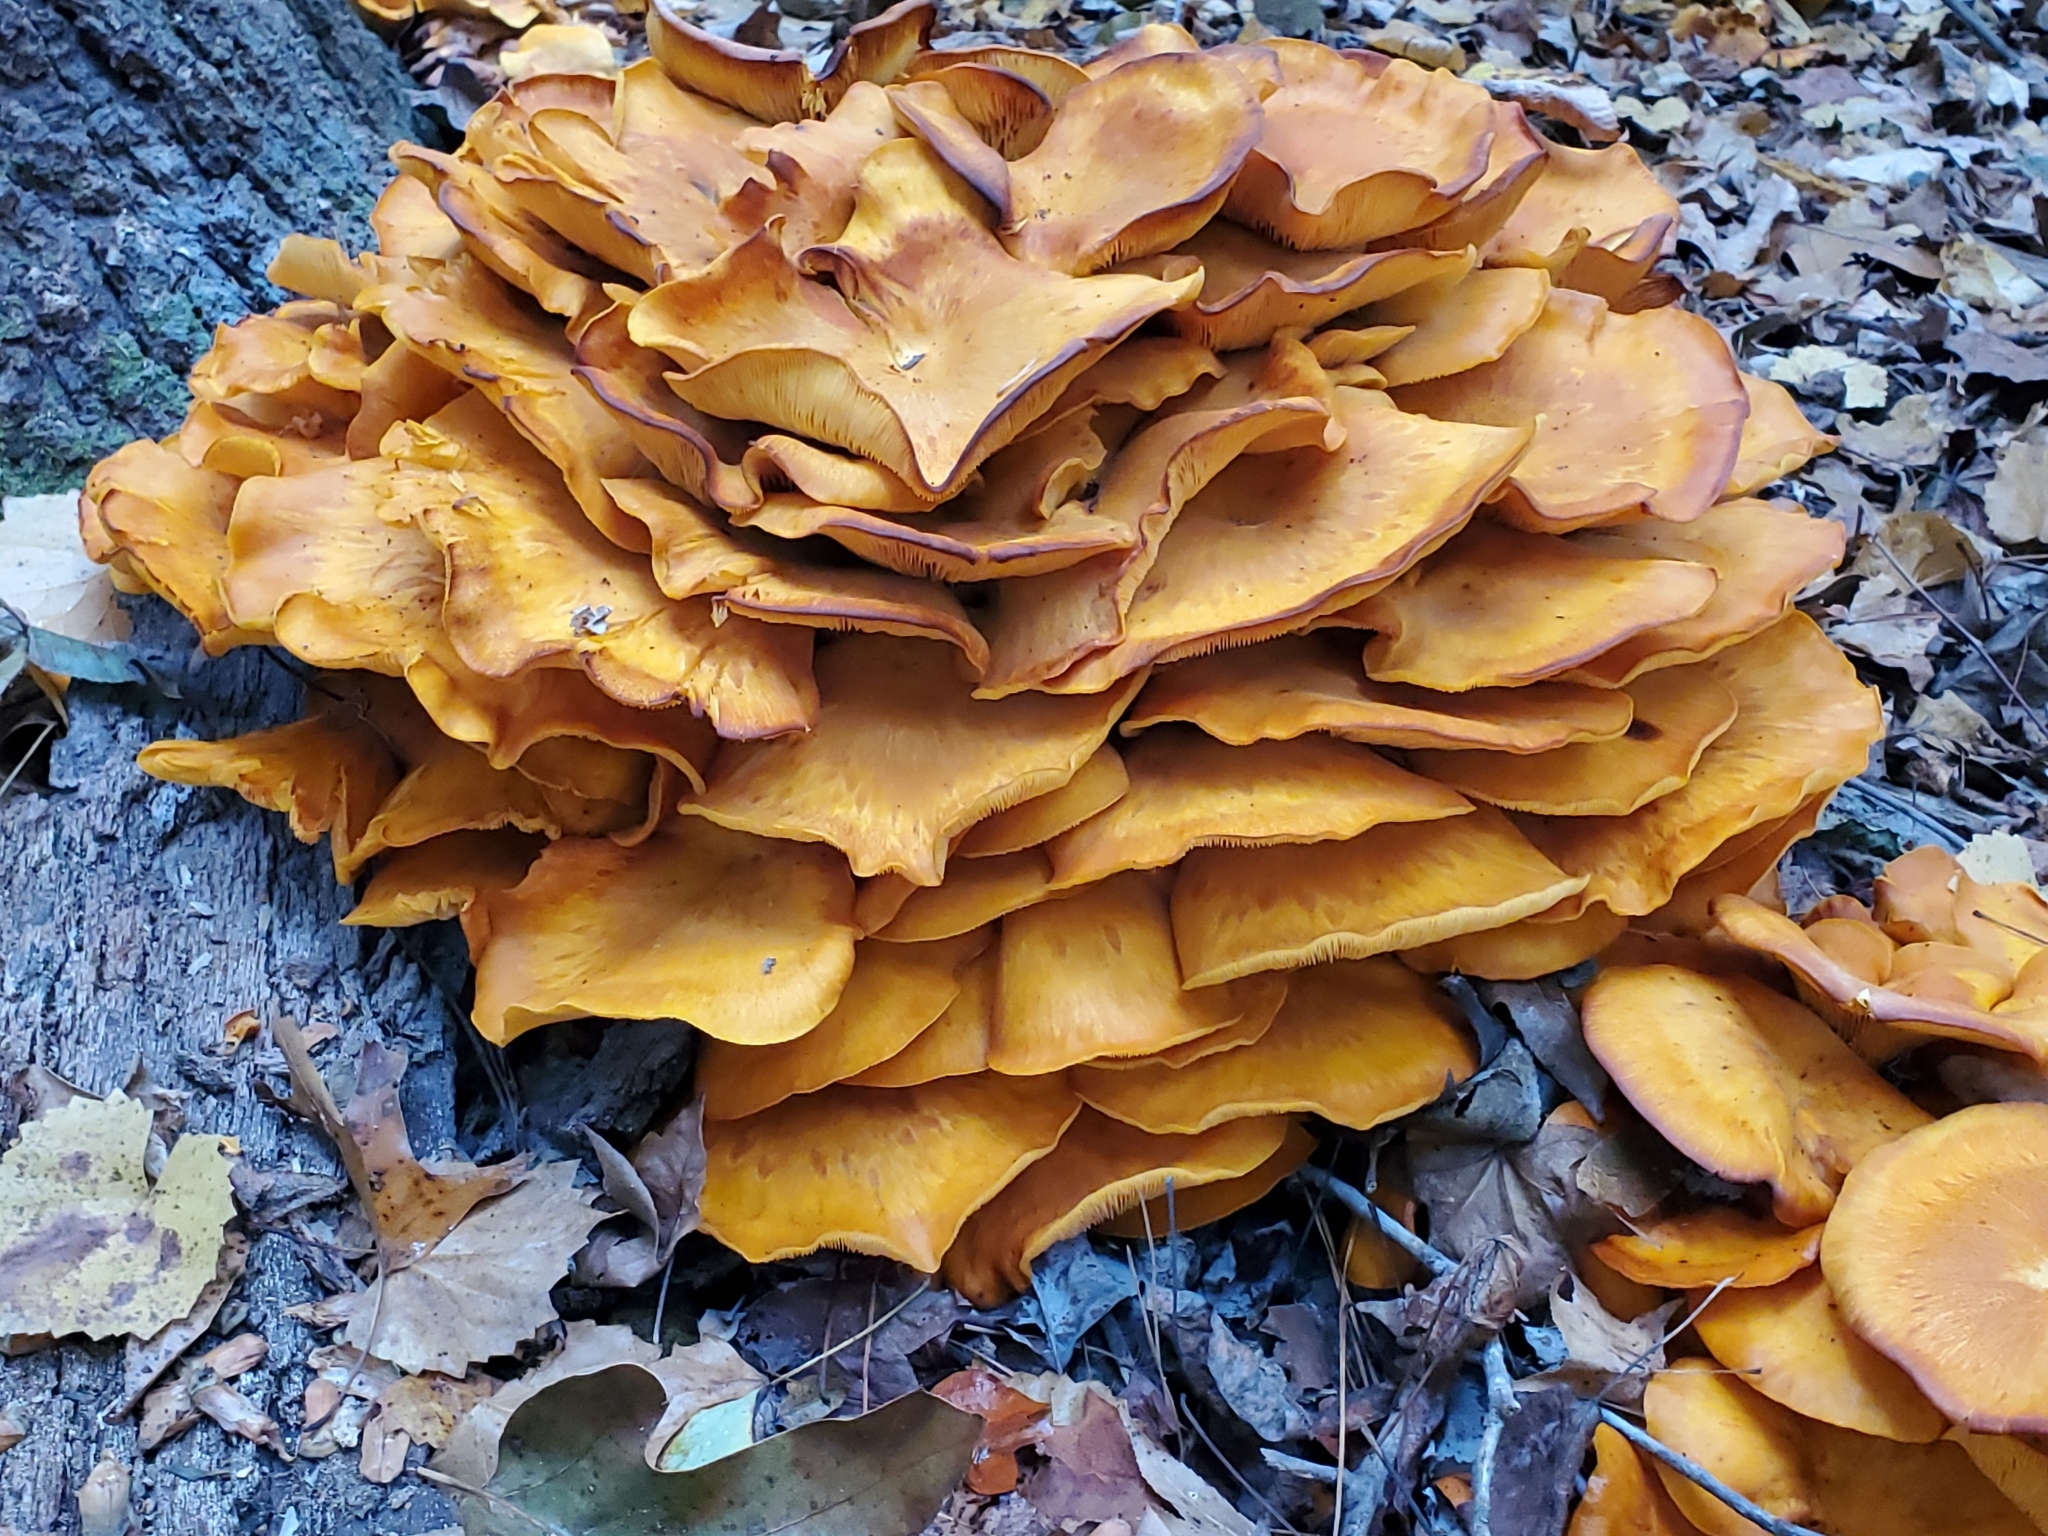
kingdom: Fungi
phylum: Basidiomycota
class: Agaricomycetes
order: Agaricales
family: Omphalotaceae
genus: Omphalotus
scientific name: Omphalotus illudens
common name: Jack o lantern
